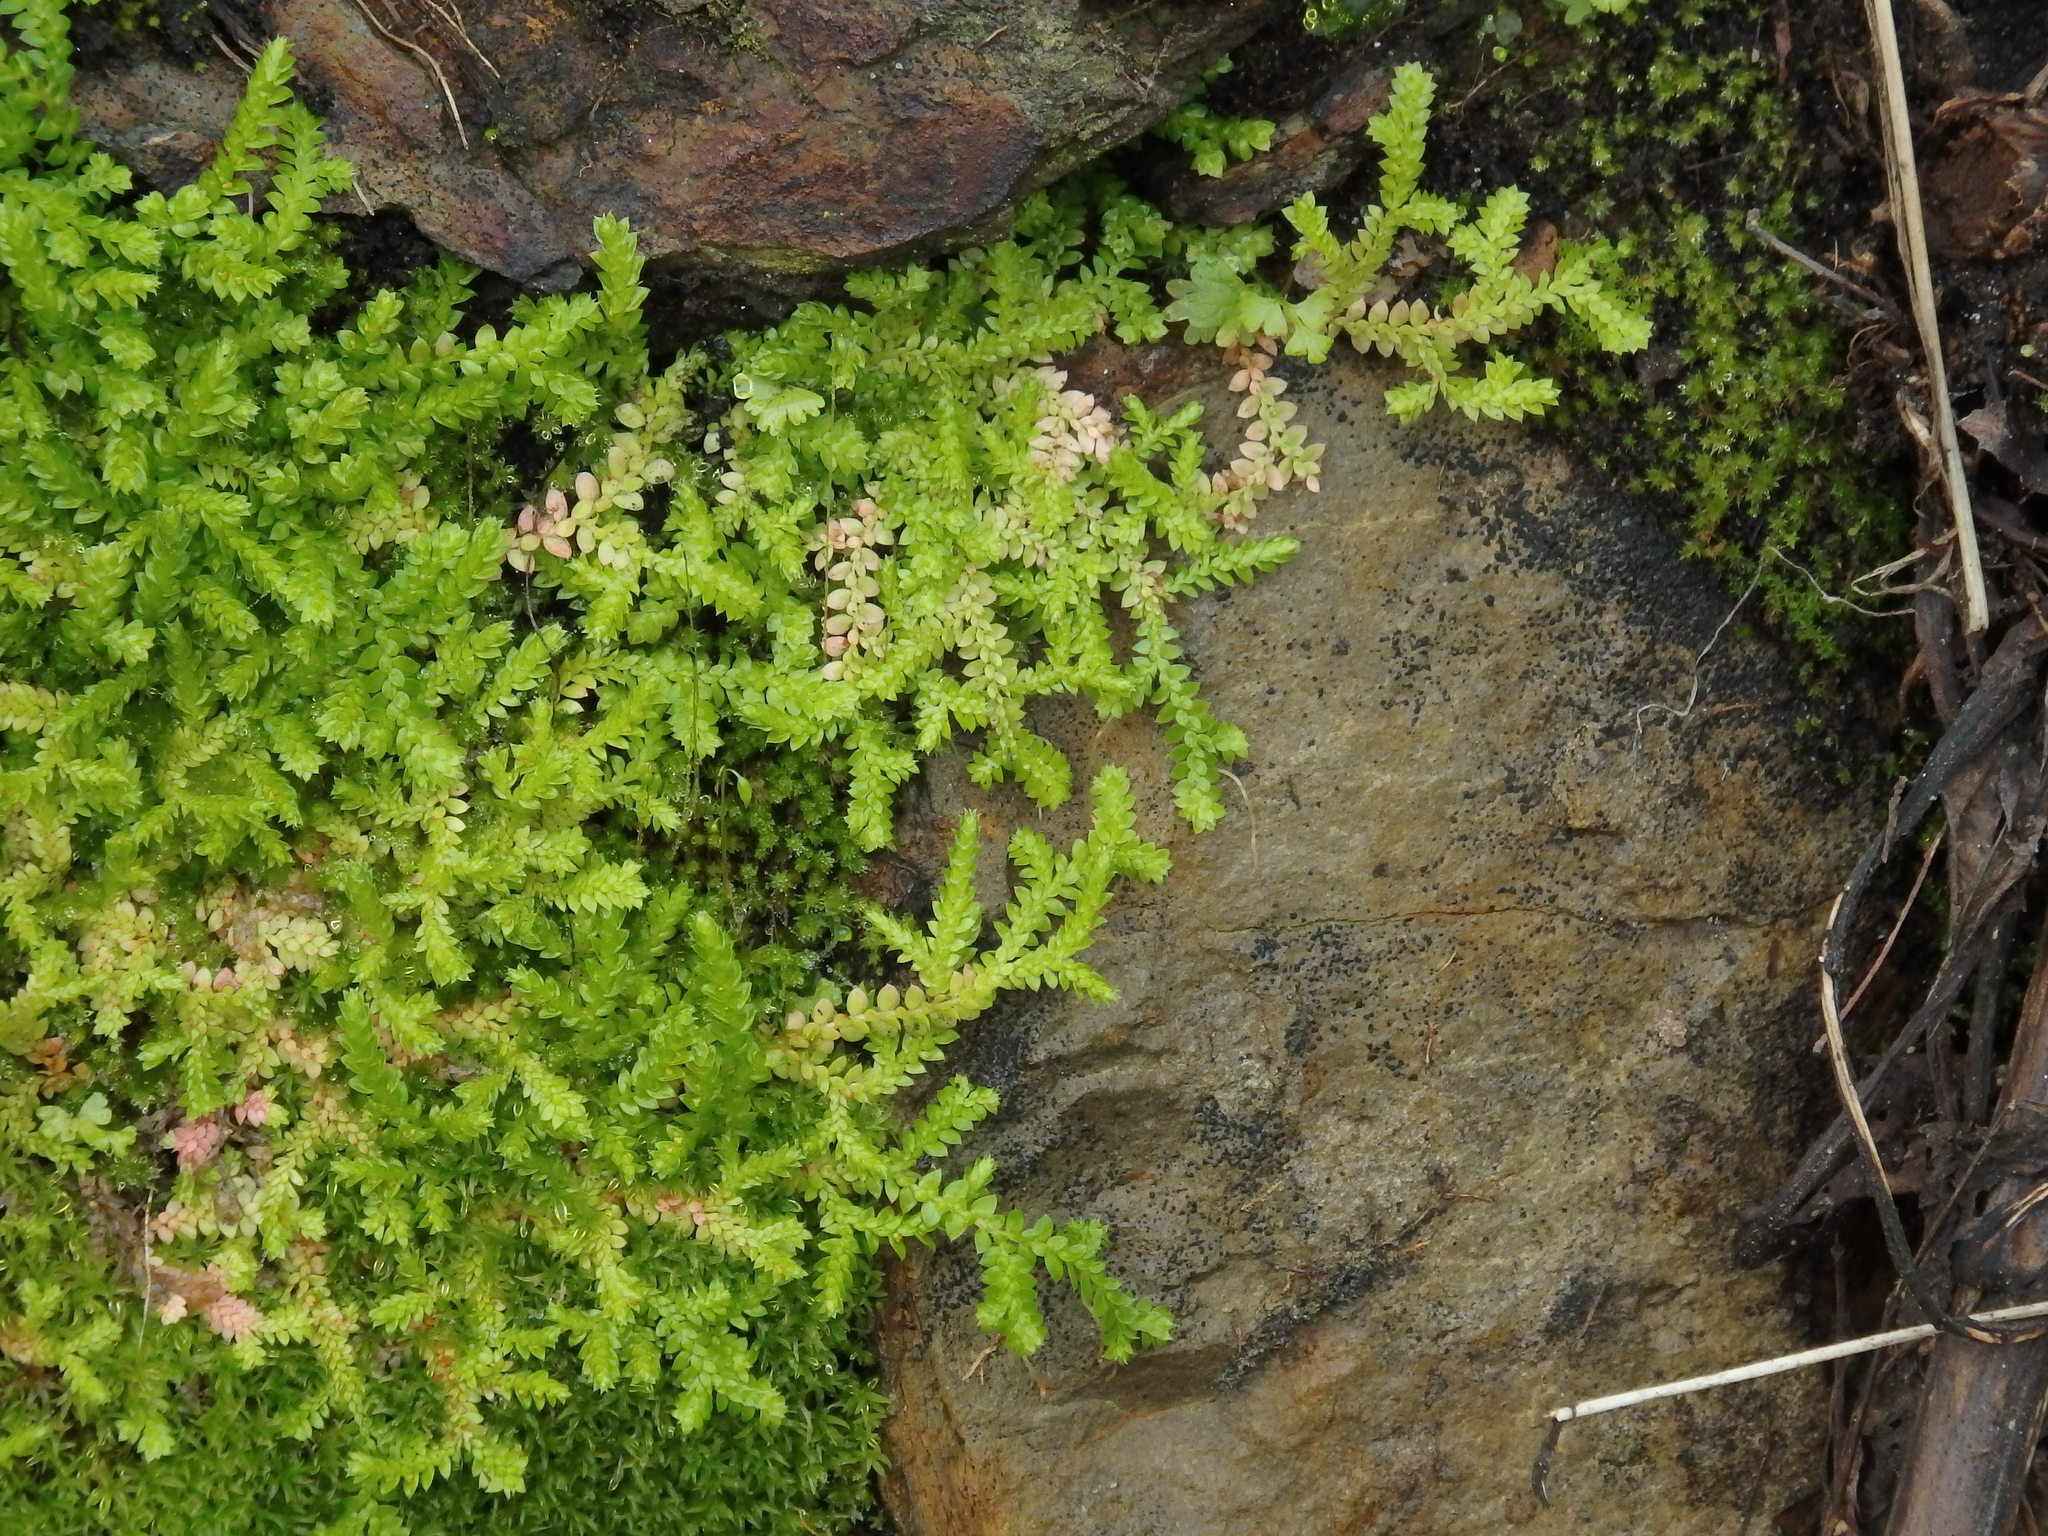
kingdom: Plantae
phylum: Tracheophyta
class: Lycopodiopsida
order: Selaginellales
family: Selaginellaceae
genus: Selaginella
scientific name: Selaginella denticulata
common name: Toothed-leaved clubmoss
